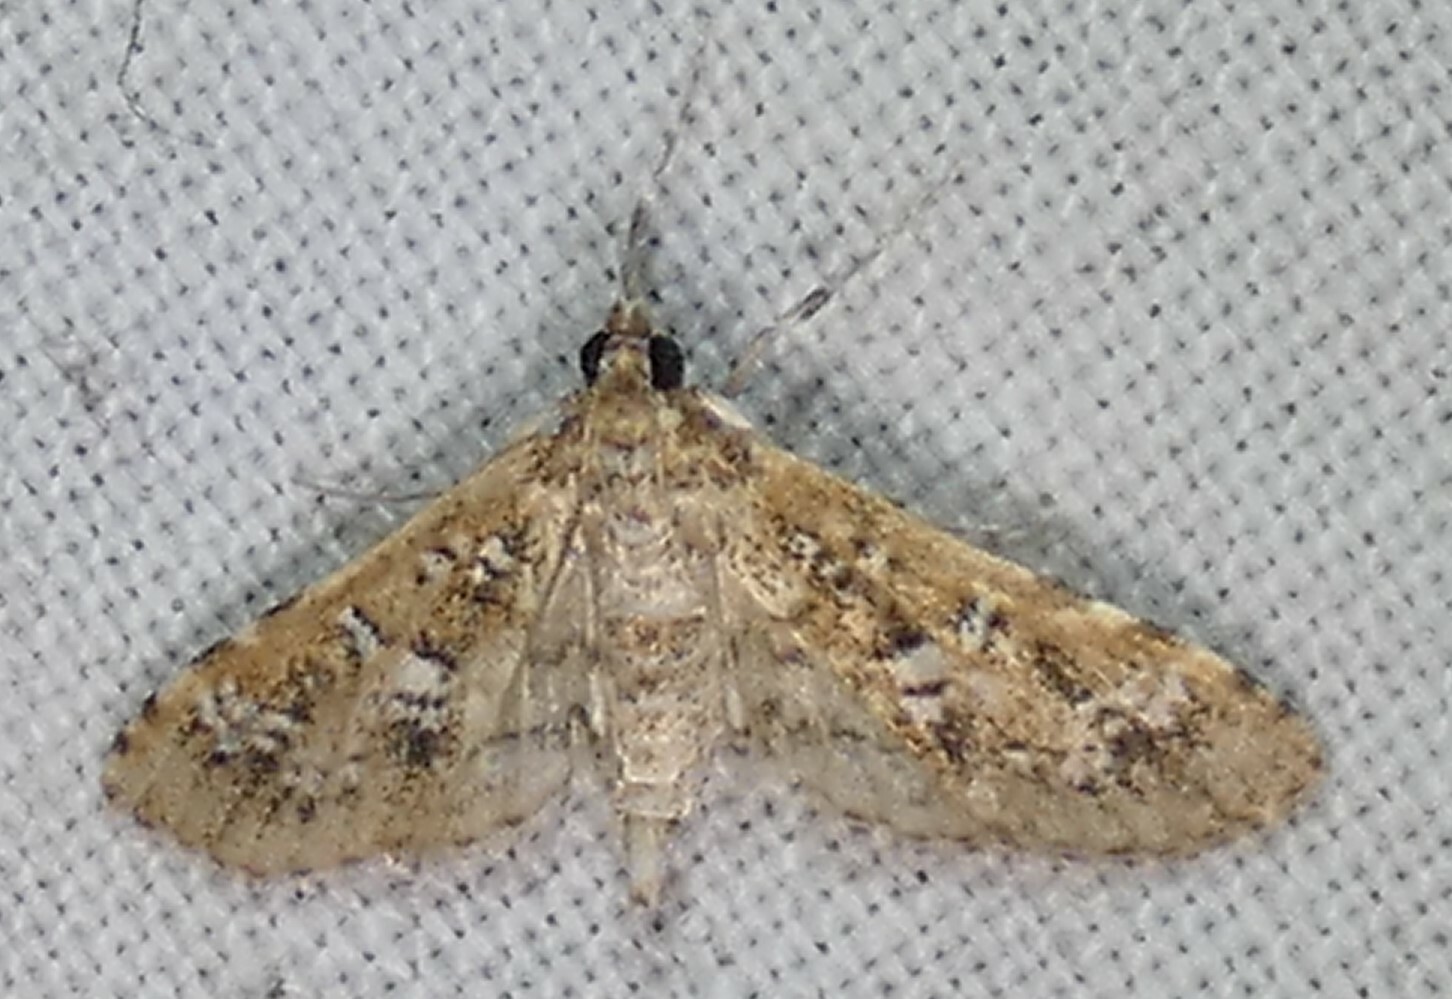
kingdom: Animalia
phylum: Arthropoda
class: Insecta
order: Lepidoptera
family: Crambidae
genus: Samea
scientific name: Samea multiplicalis
